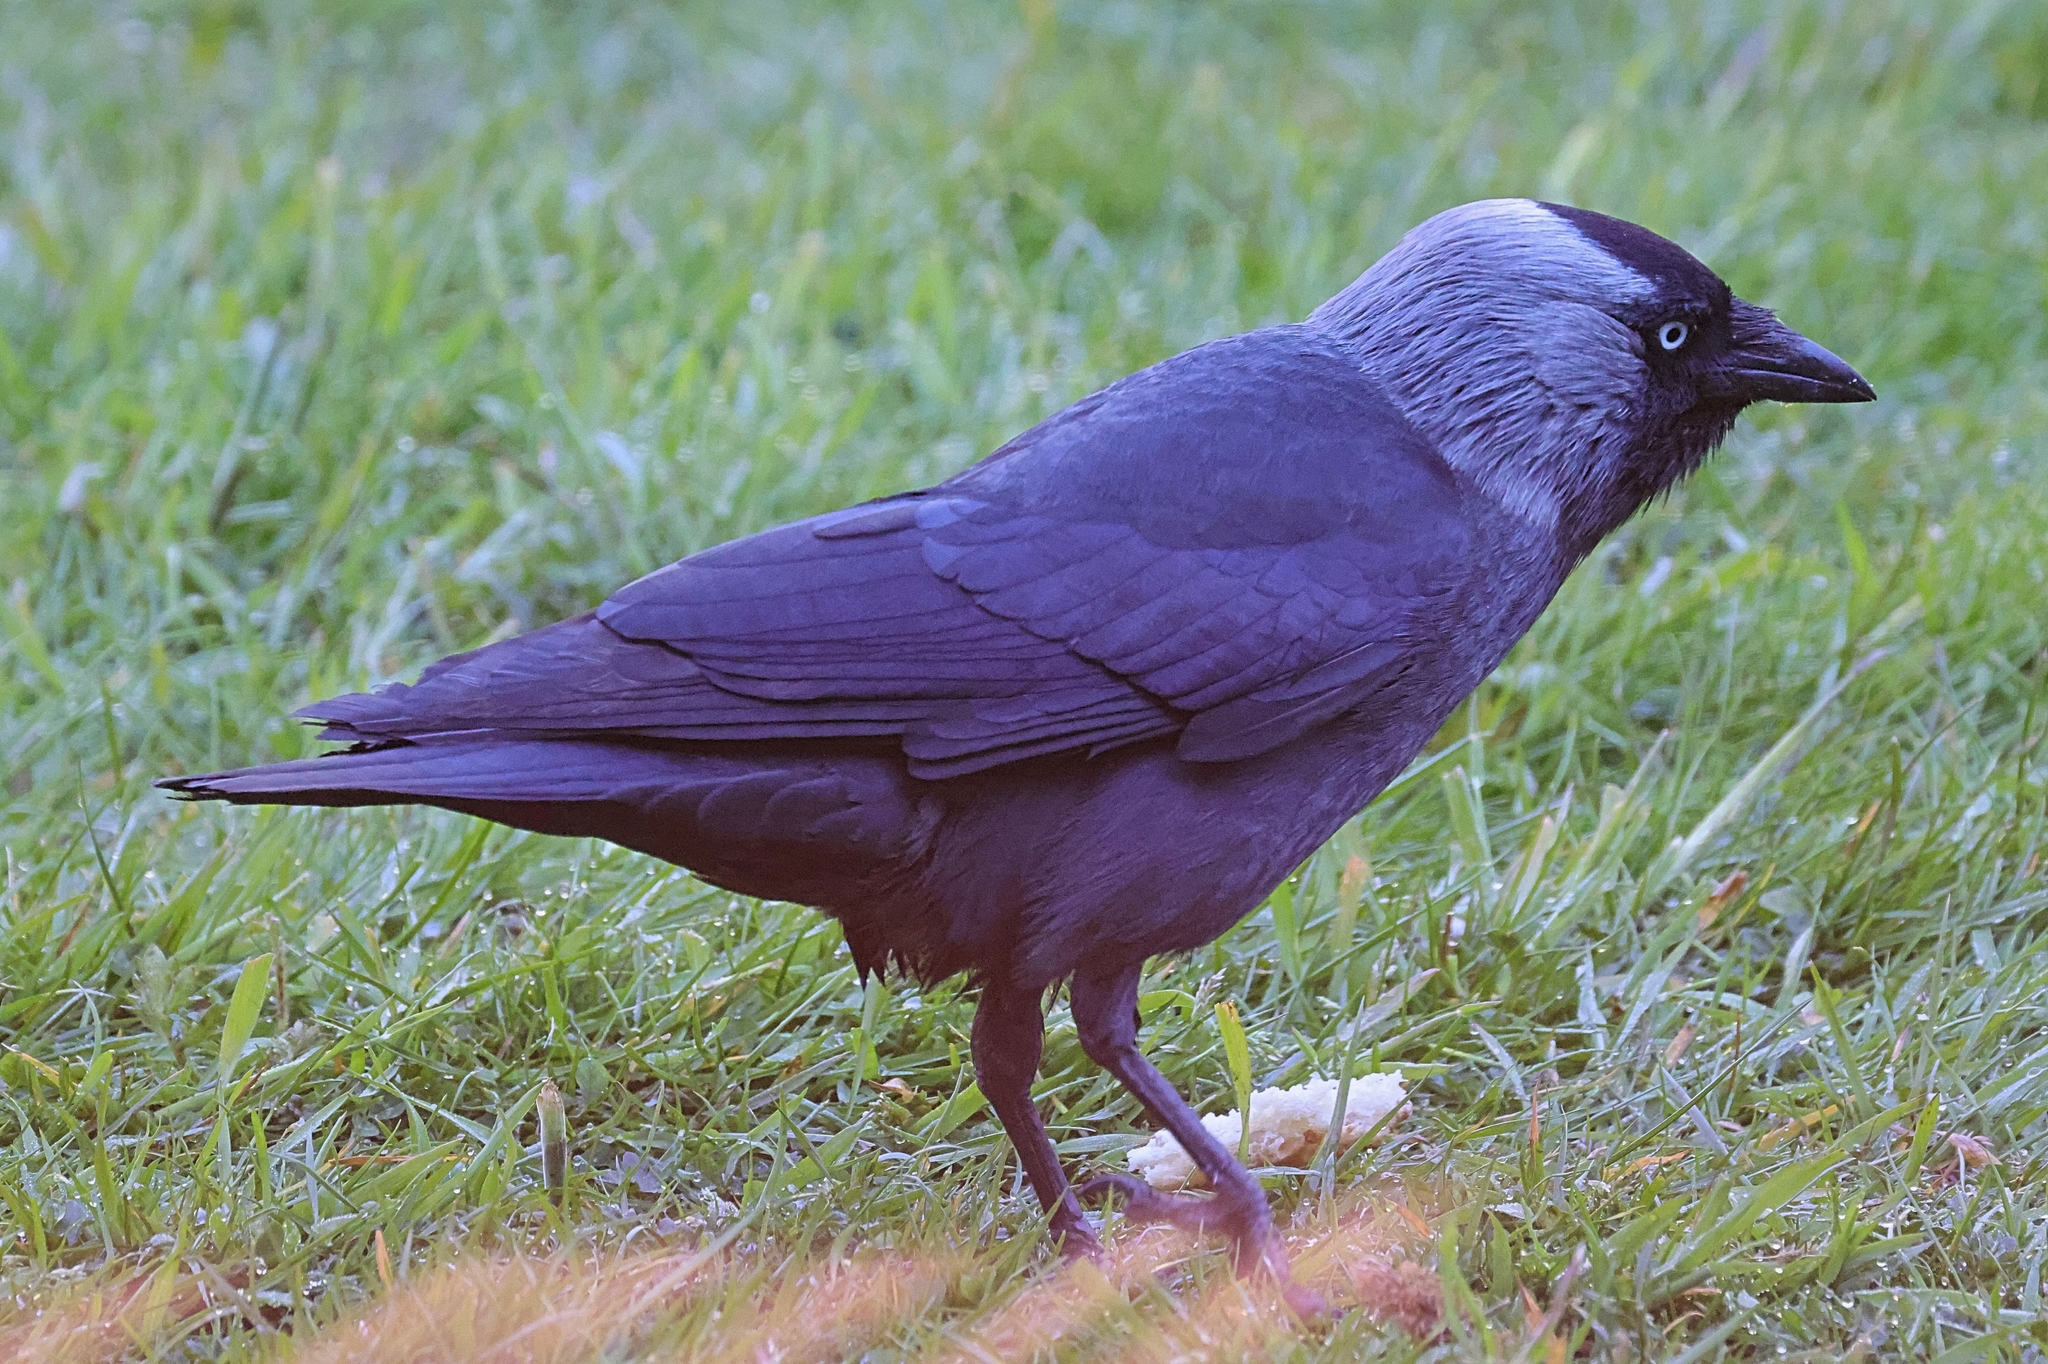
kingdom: Animalia
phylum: Chordata
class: Aves
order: Passeriformes
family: Corvidae
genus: Coloeus
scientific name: Coloeus monedula
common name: Western jackdaw
